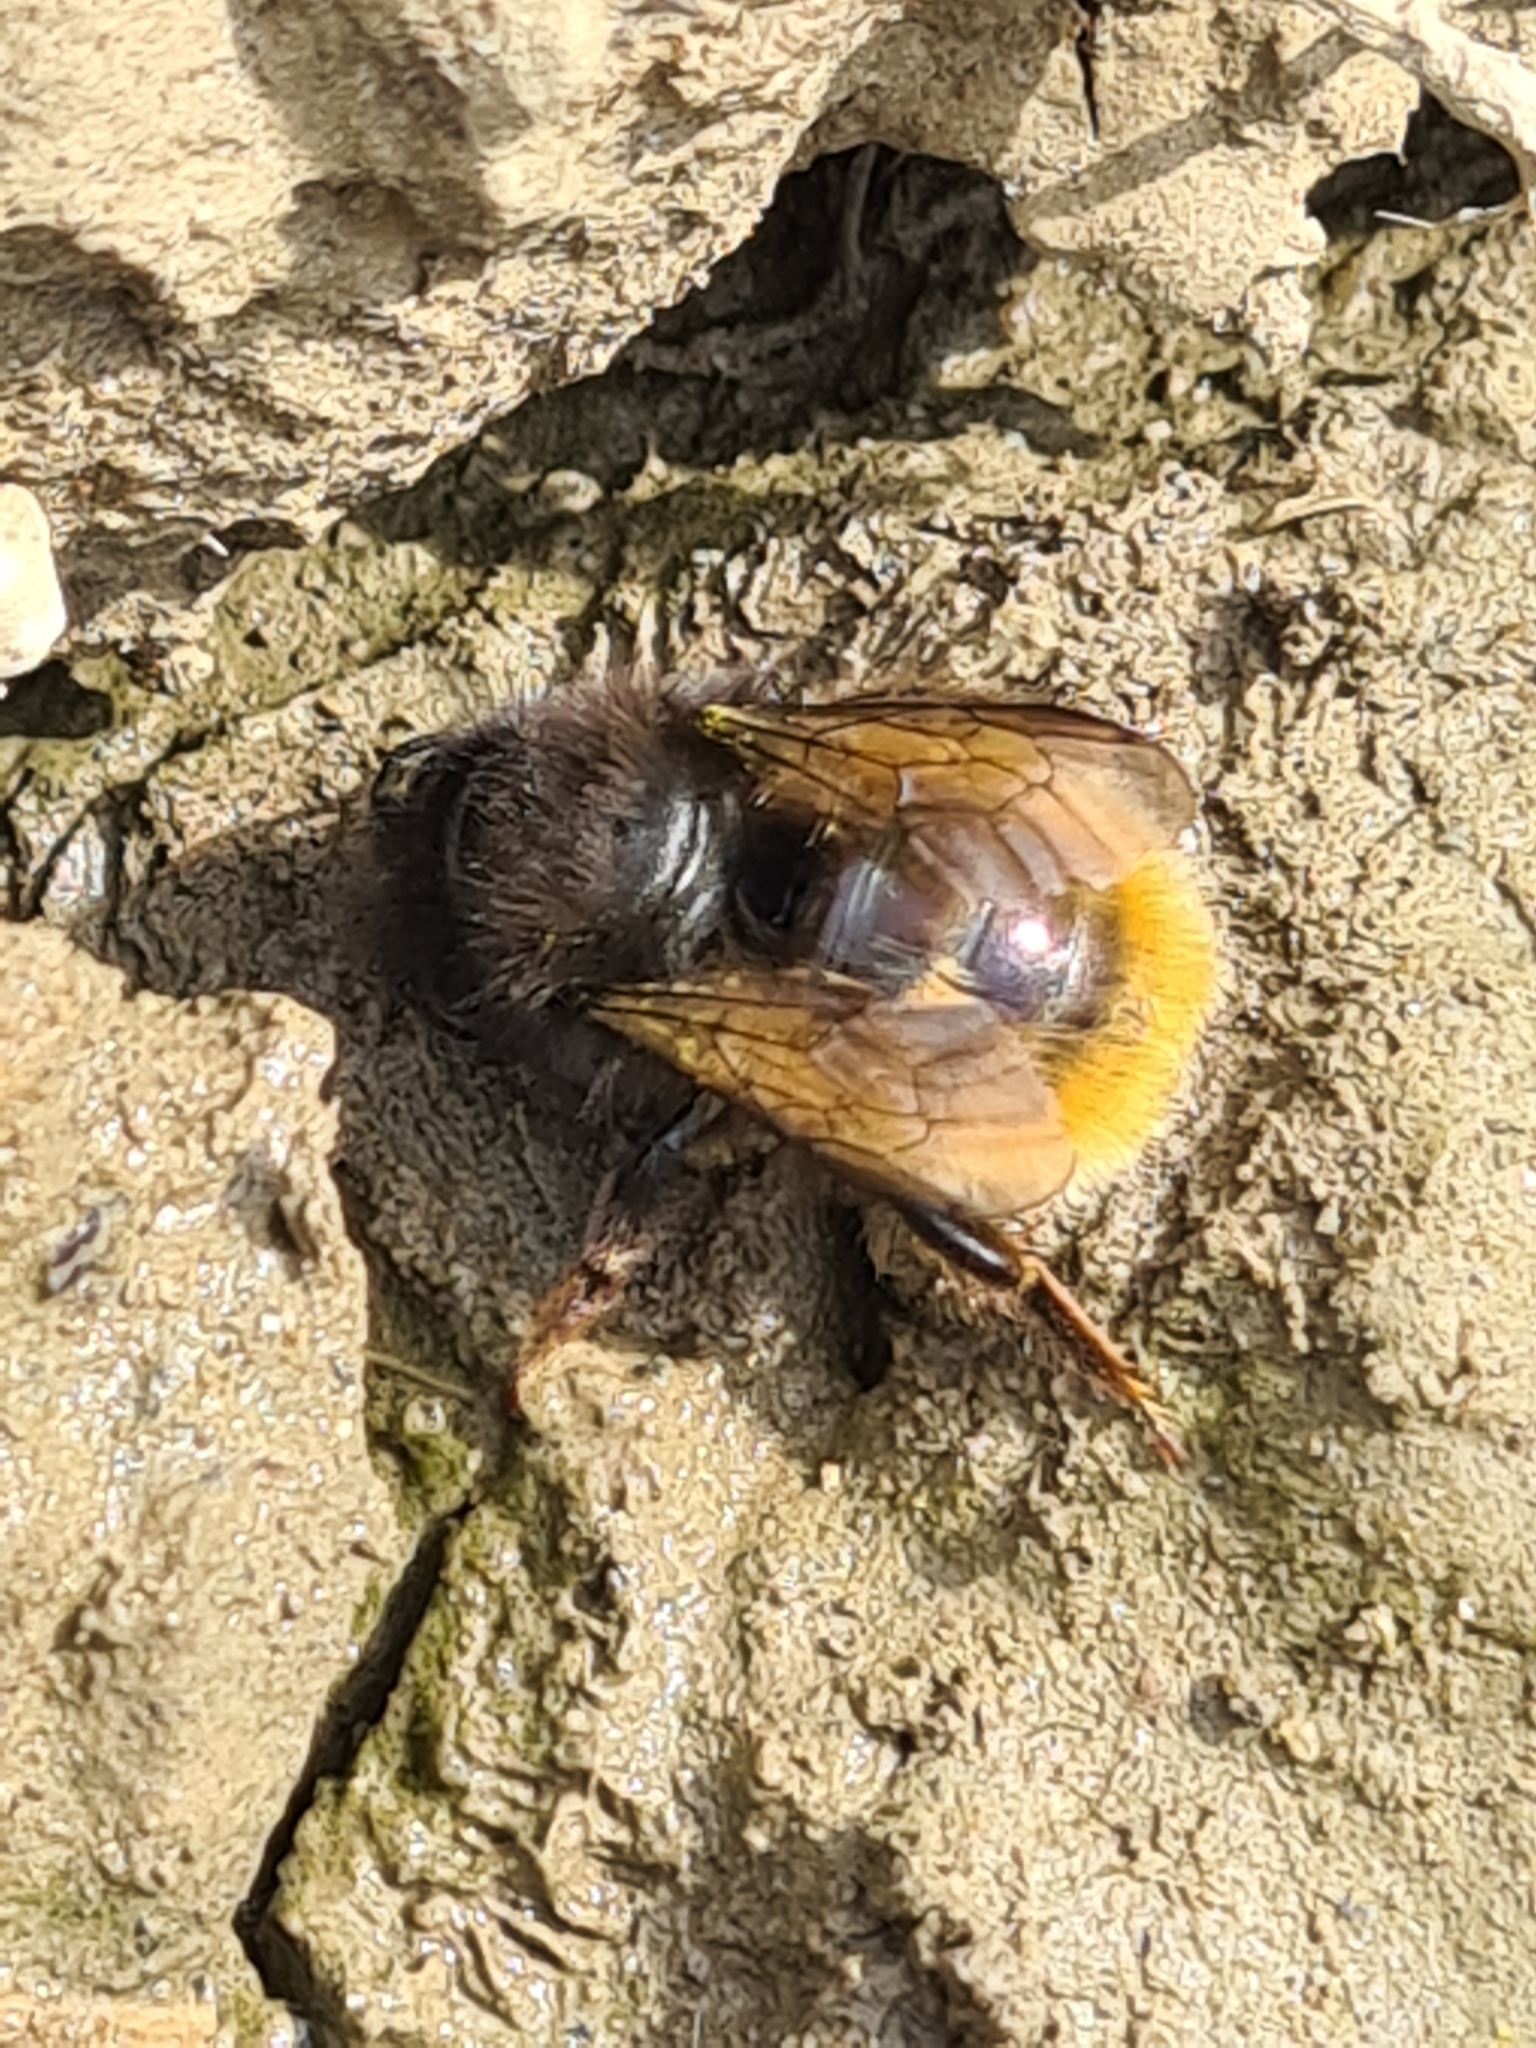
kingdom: Animalia
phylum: Arthropoda
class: Insecta
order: Hymenoptera
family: Megachilidae
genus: Osmia
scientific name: Osmia cornuta
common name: Mason bee
